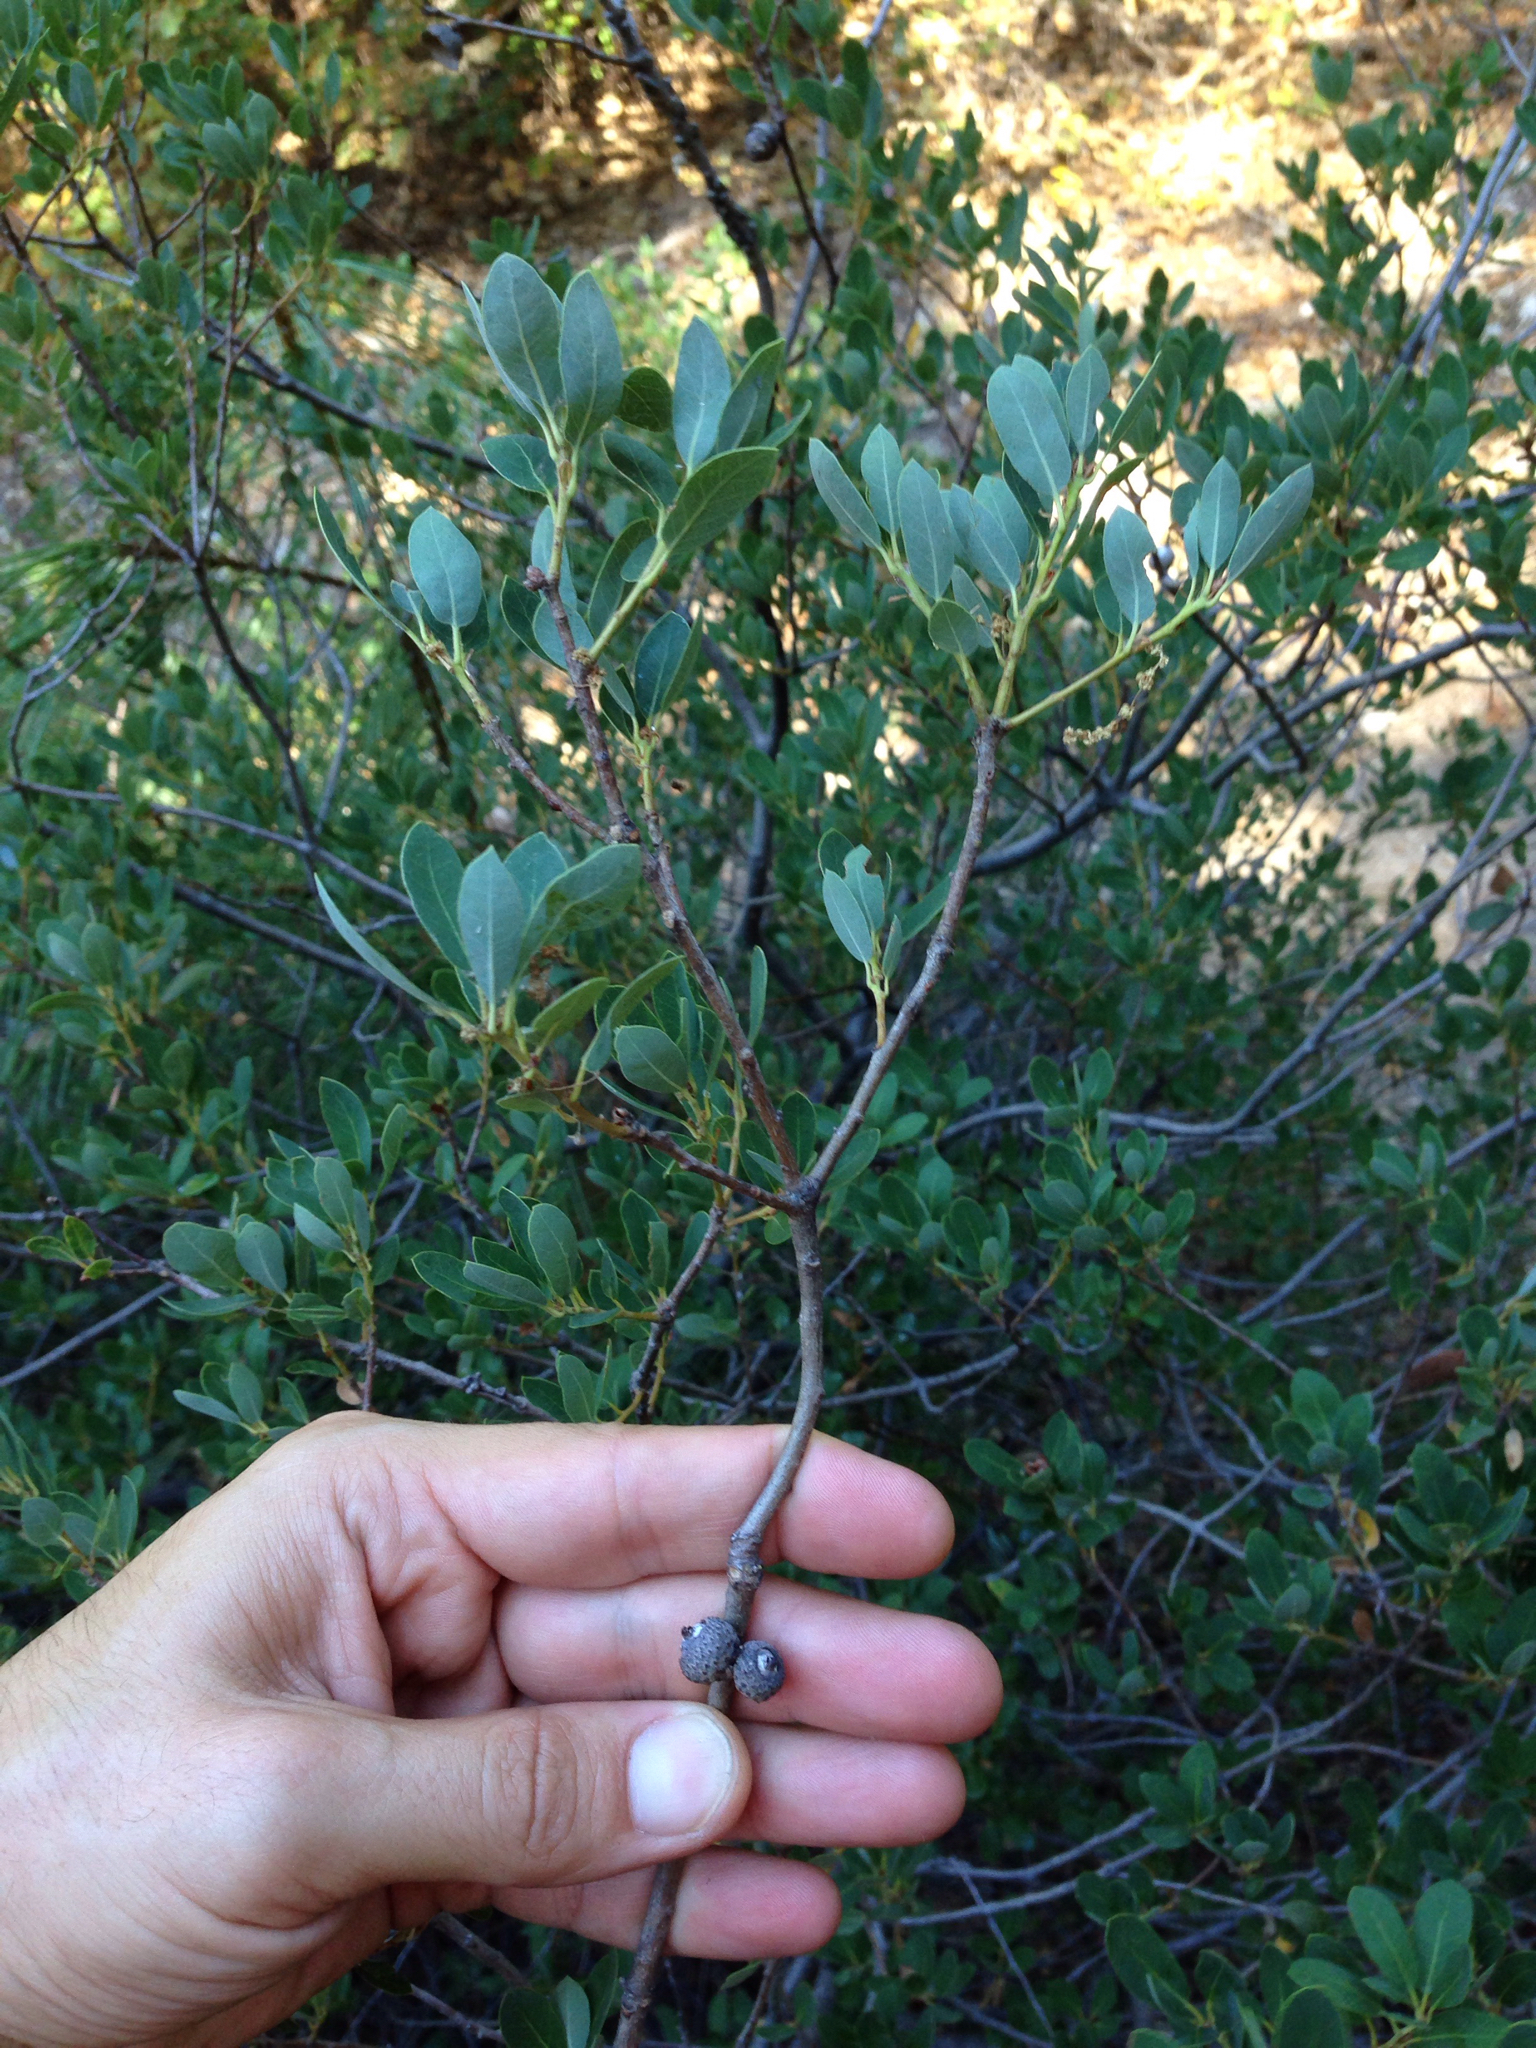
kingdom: Plantae
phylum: Tracheophyta
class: Magnoliopsida
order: Fagales
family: Fagaceae
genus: Quercus
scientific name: Quercus vacciniifolia
